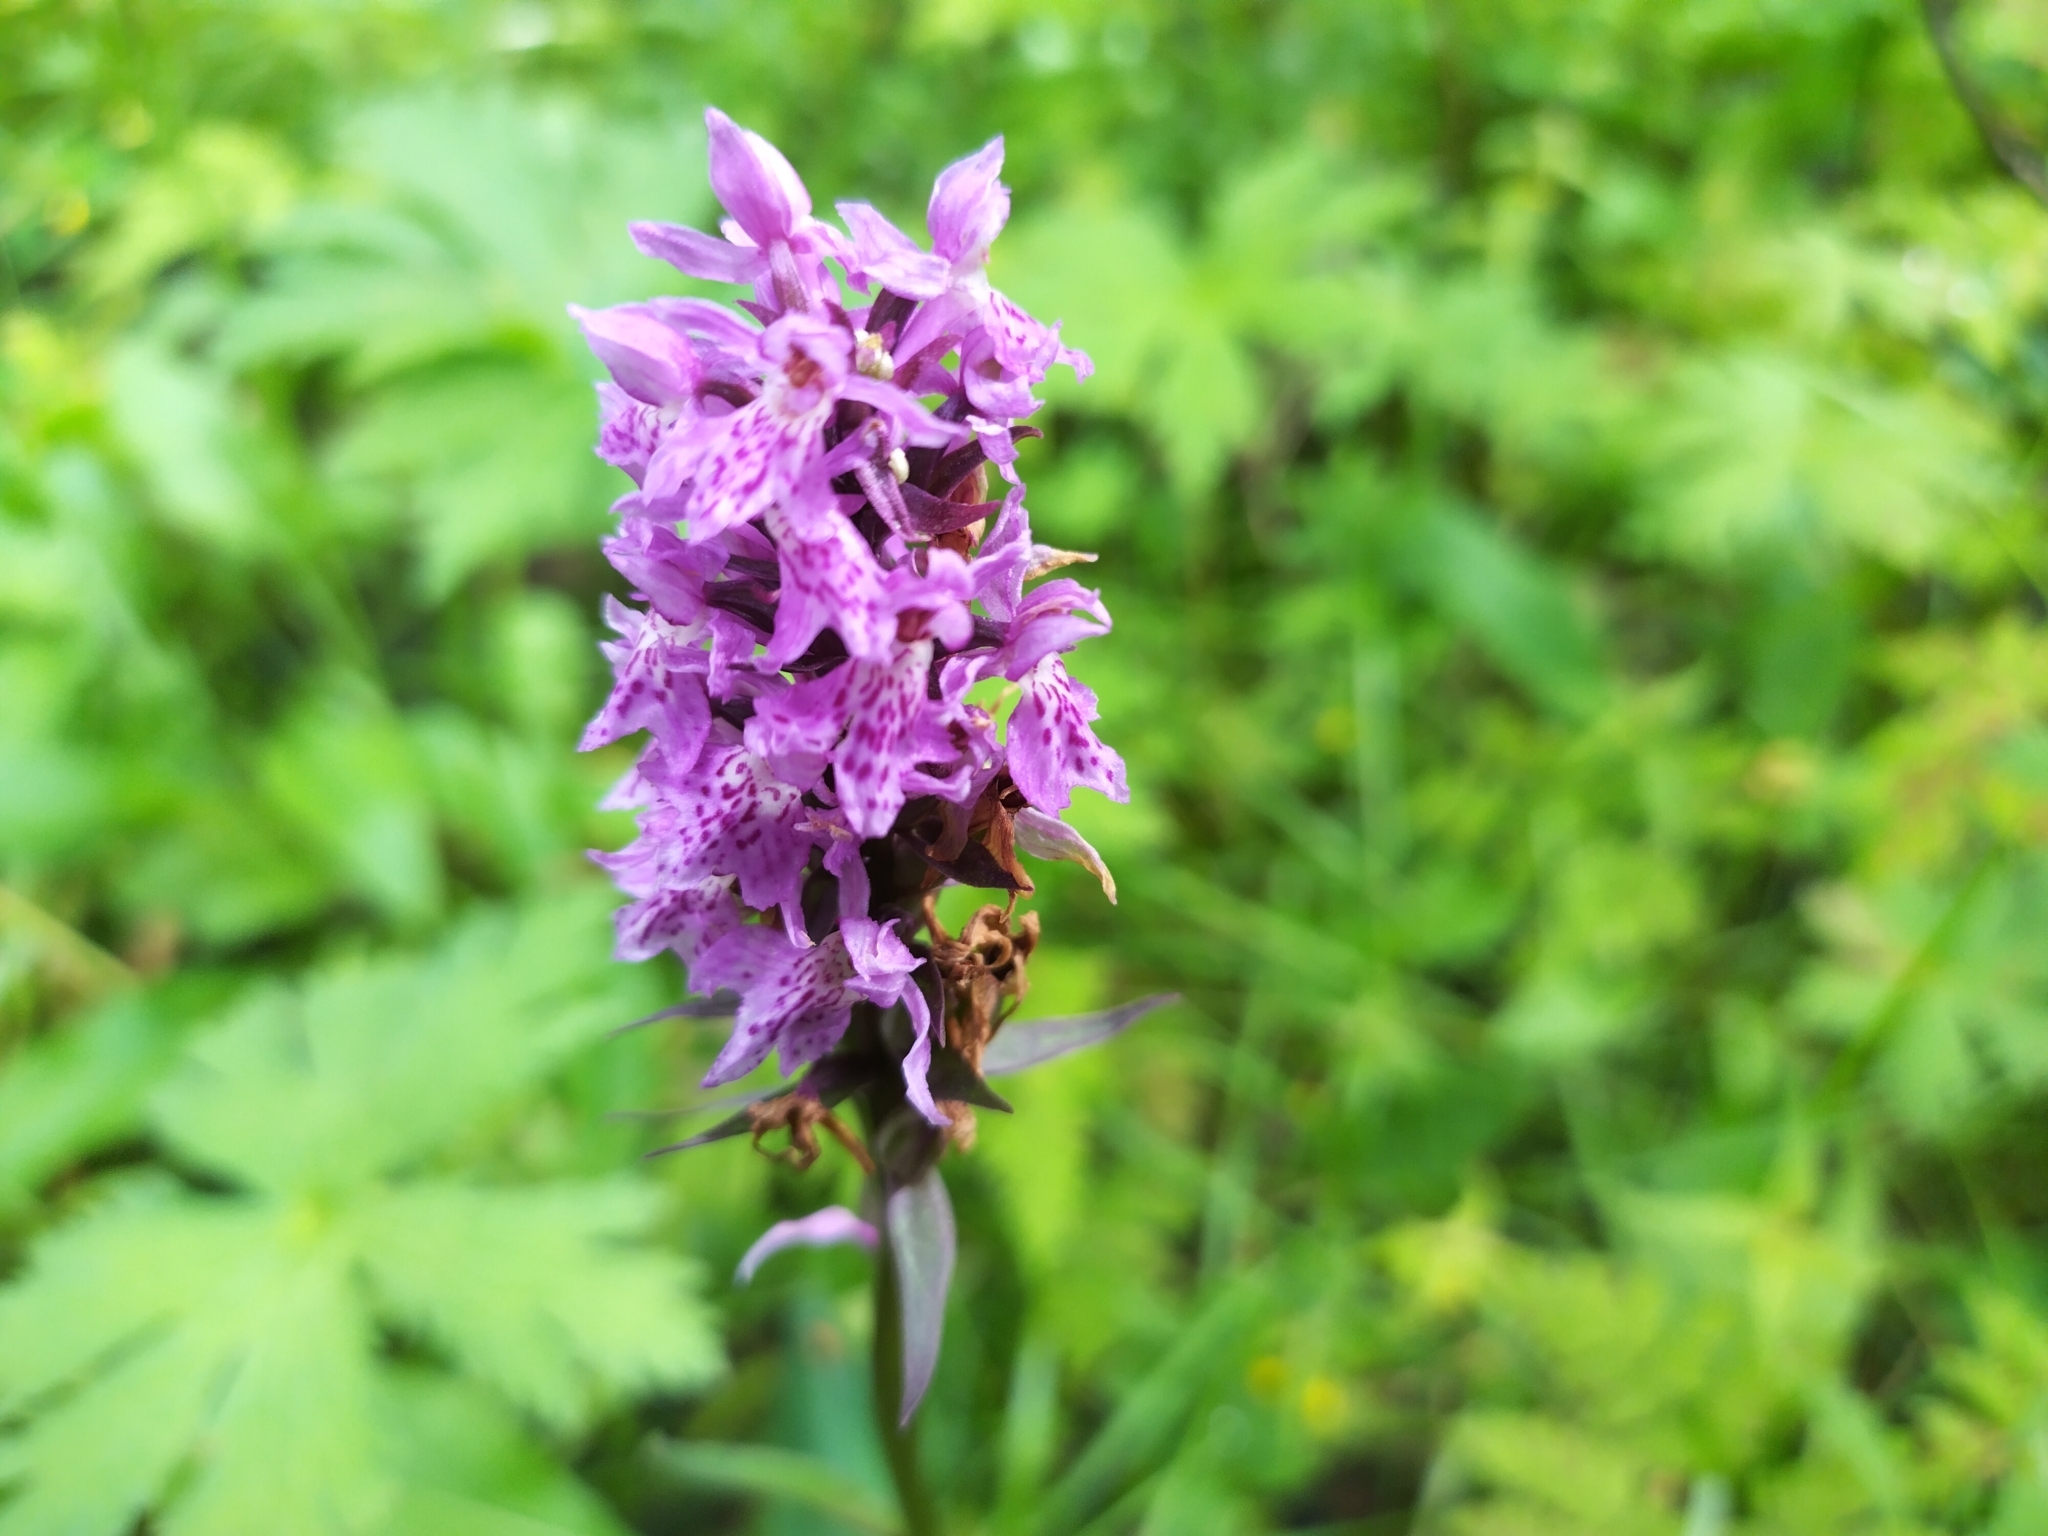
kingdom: Plantae
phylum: Tracheophyta
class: Liliopsida
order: Asparagales
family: Orchidaceae
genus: Dactylorhiza
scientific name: Dactylorhiza maculata
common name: Heath spotted-orchid
